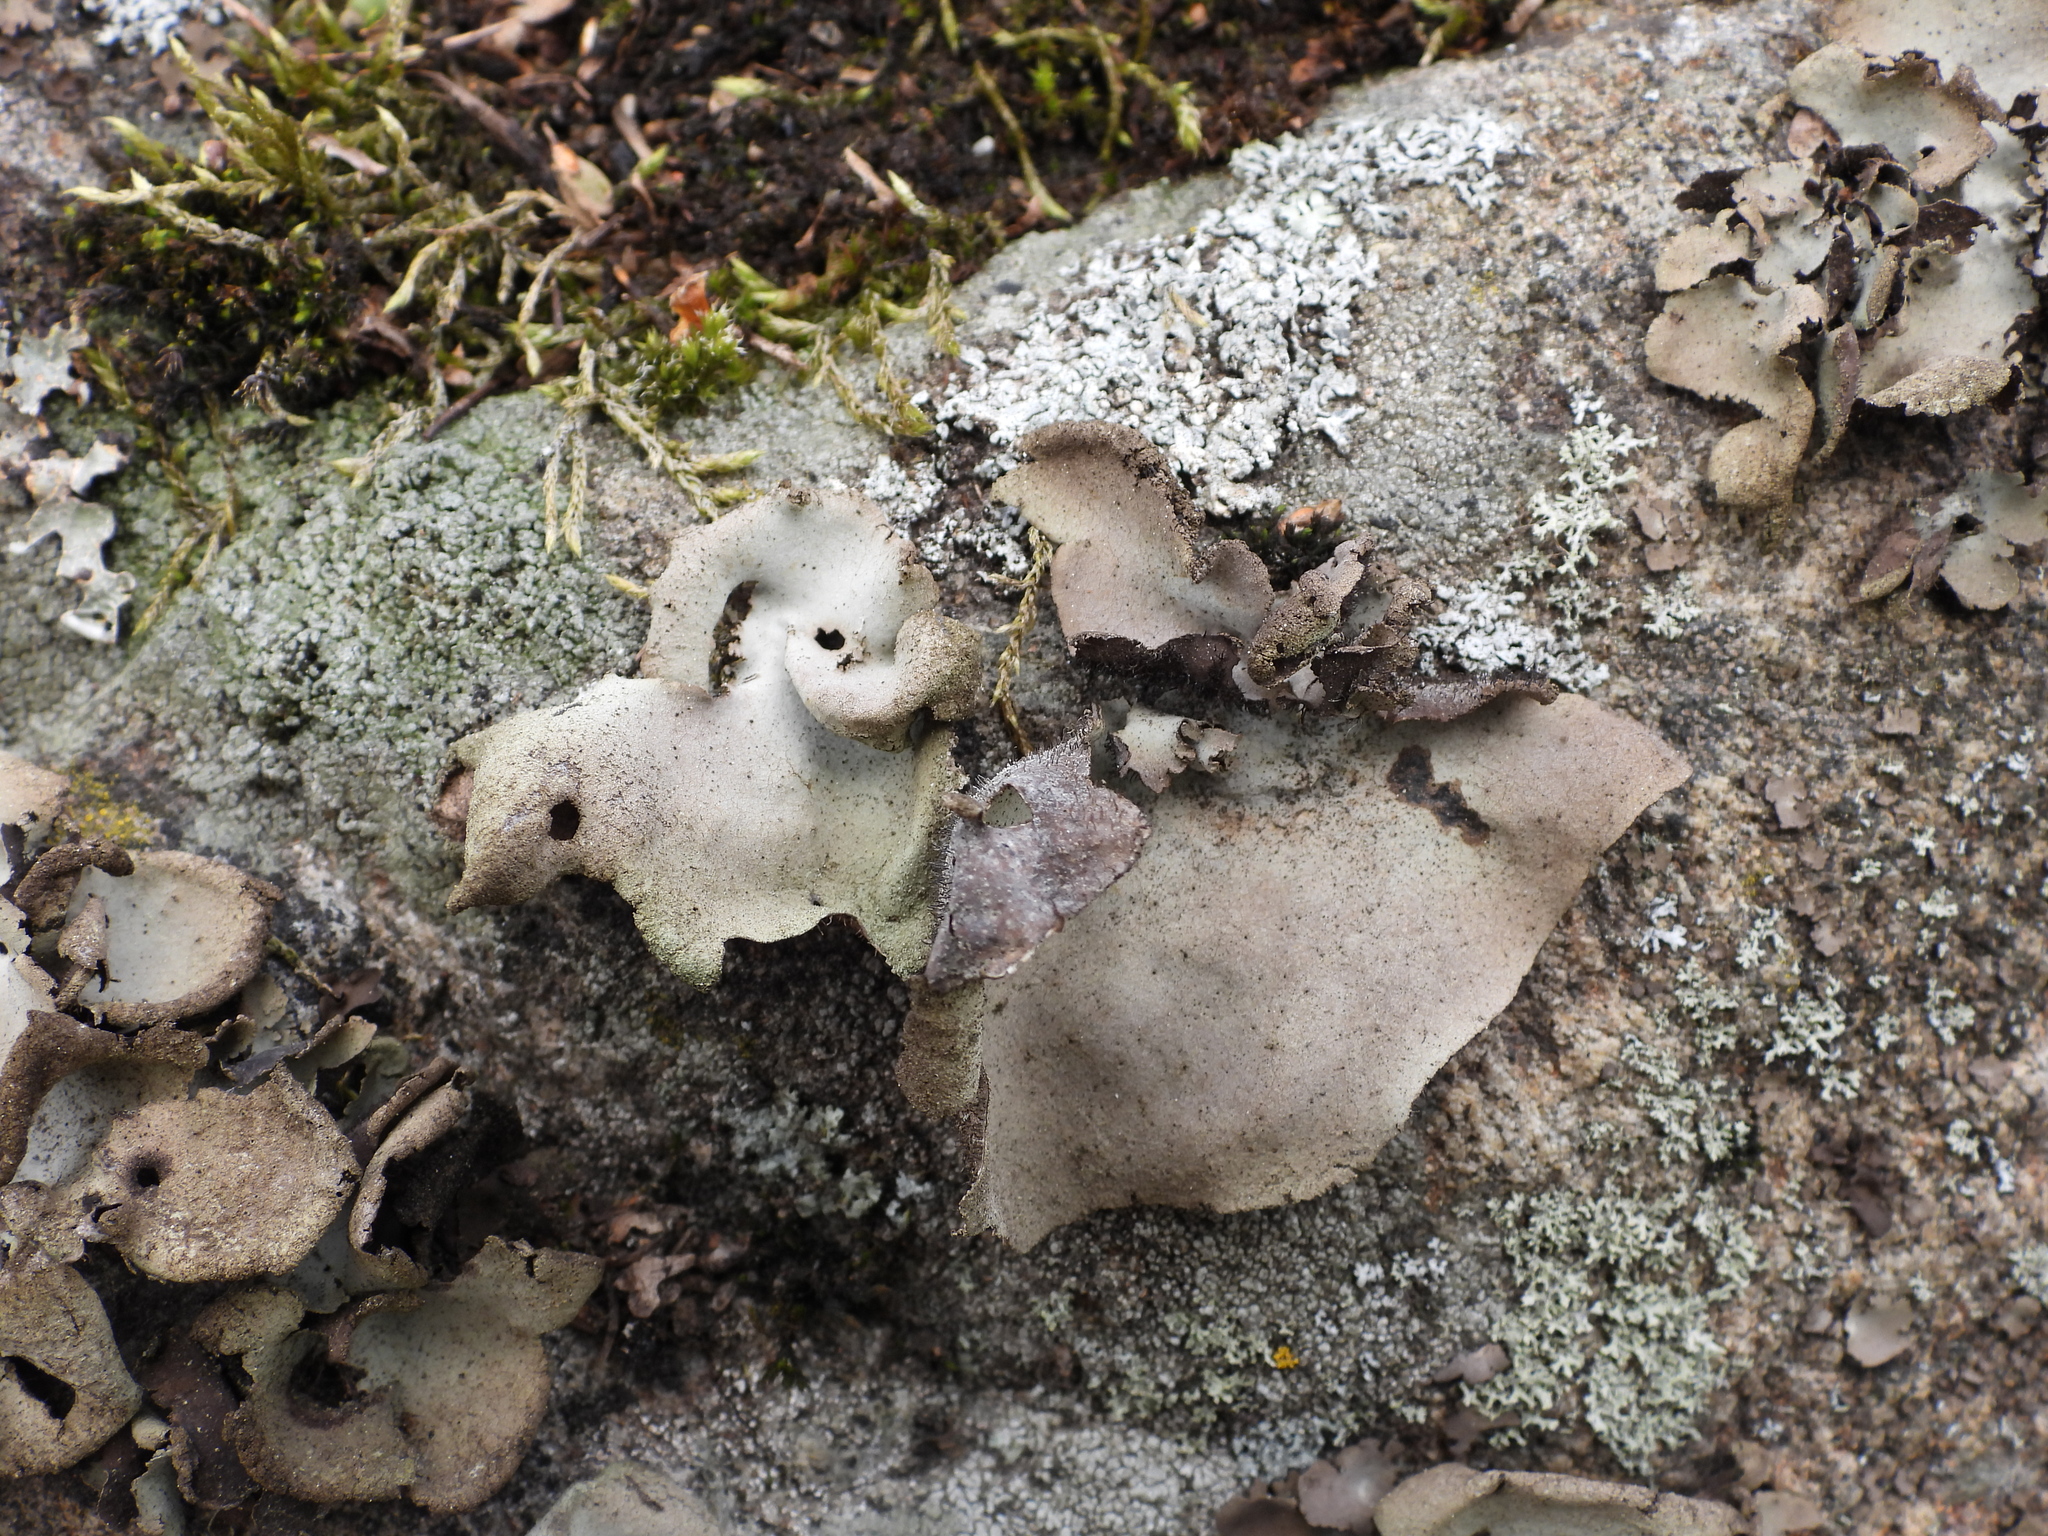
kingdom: Fungi
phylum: Ascomycota
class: Lecanoromycetes
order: Umbilicariales
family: Umbilicariaceae
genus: Umbilicaria
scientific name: Umbilicaria hirsuta
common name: Granulating rocktripe lichen
